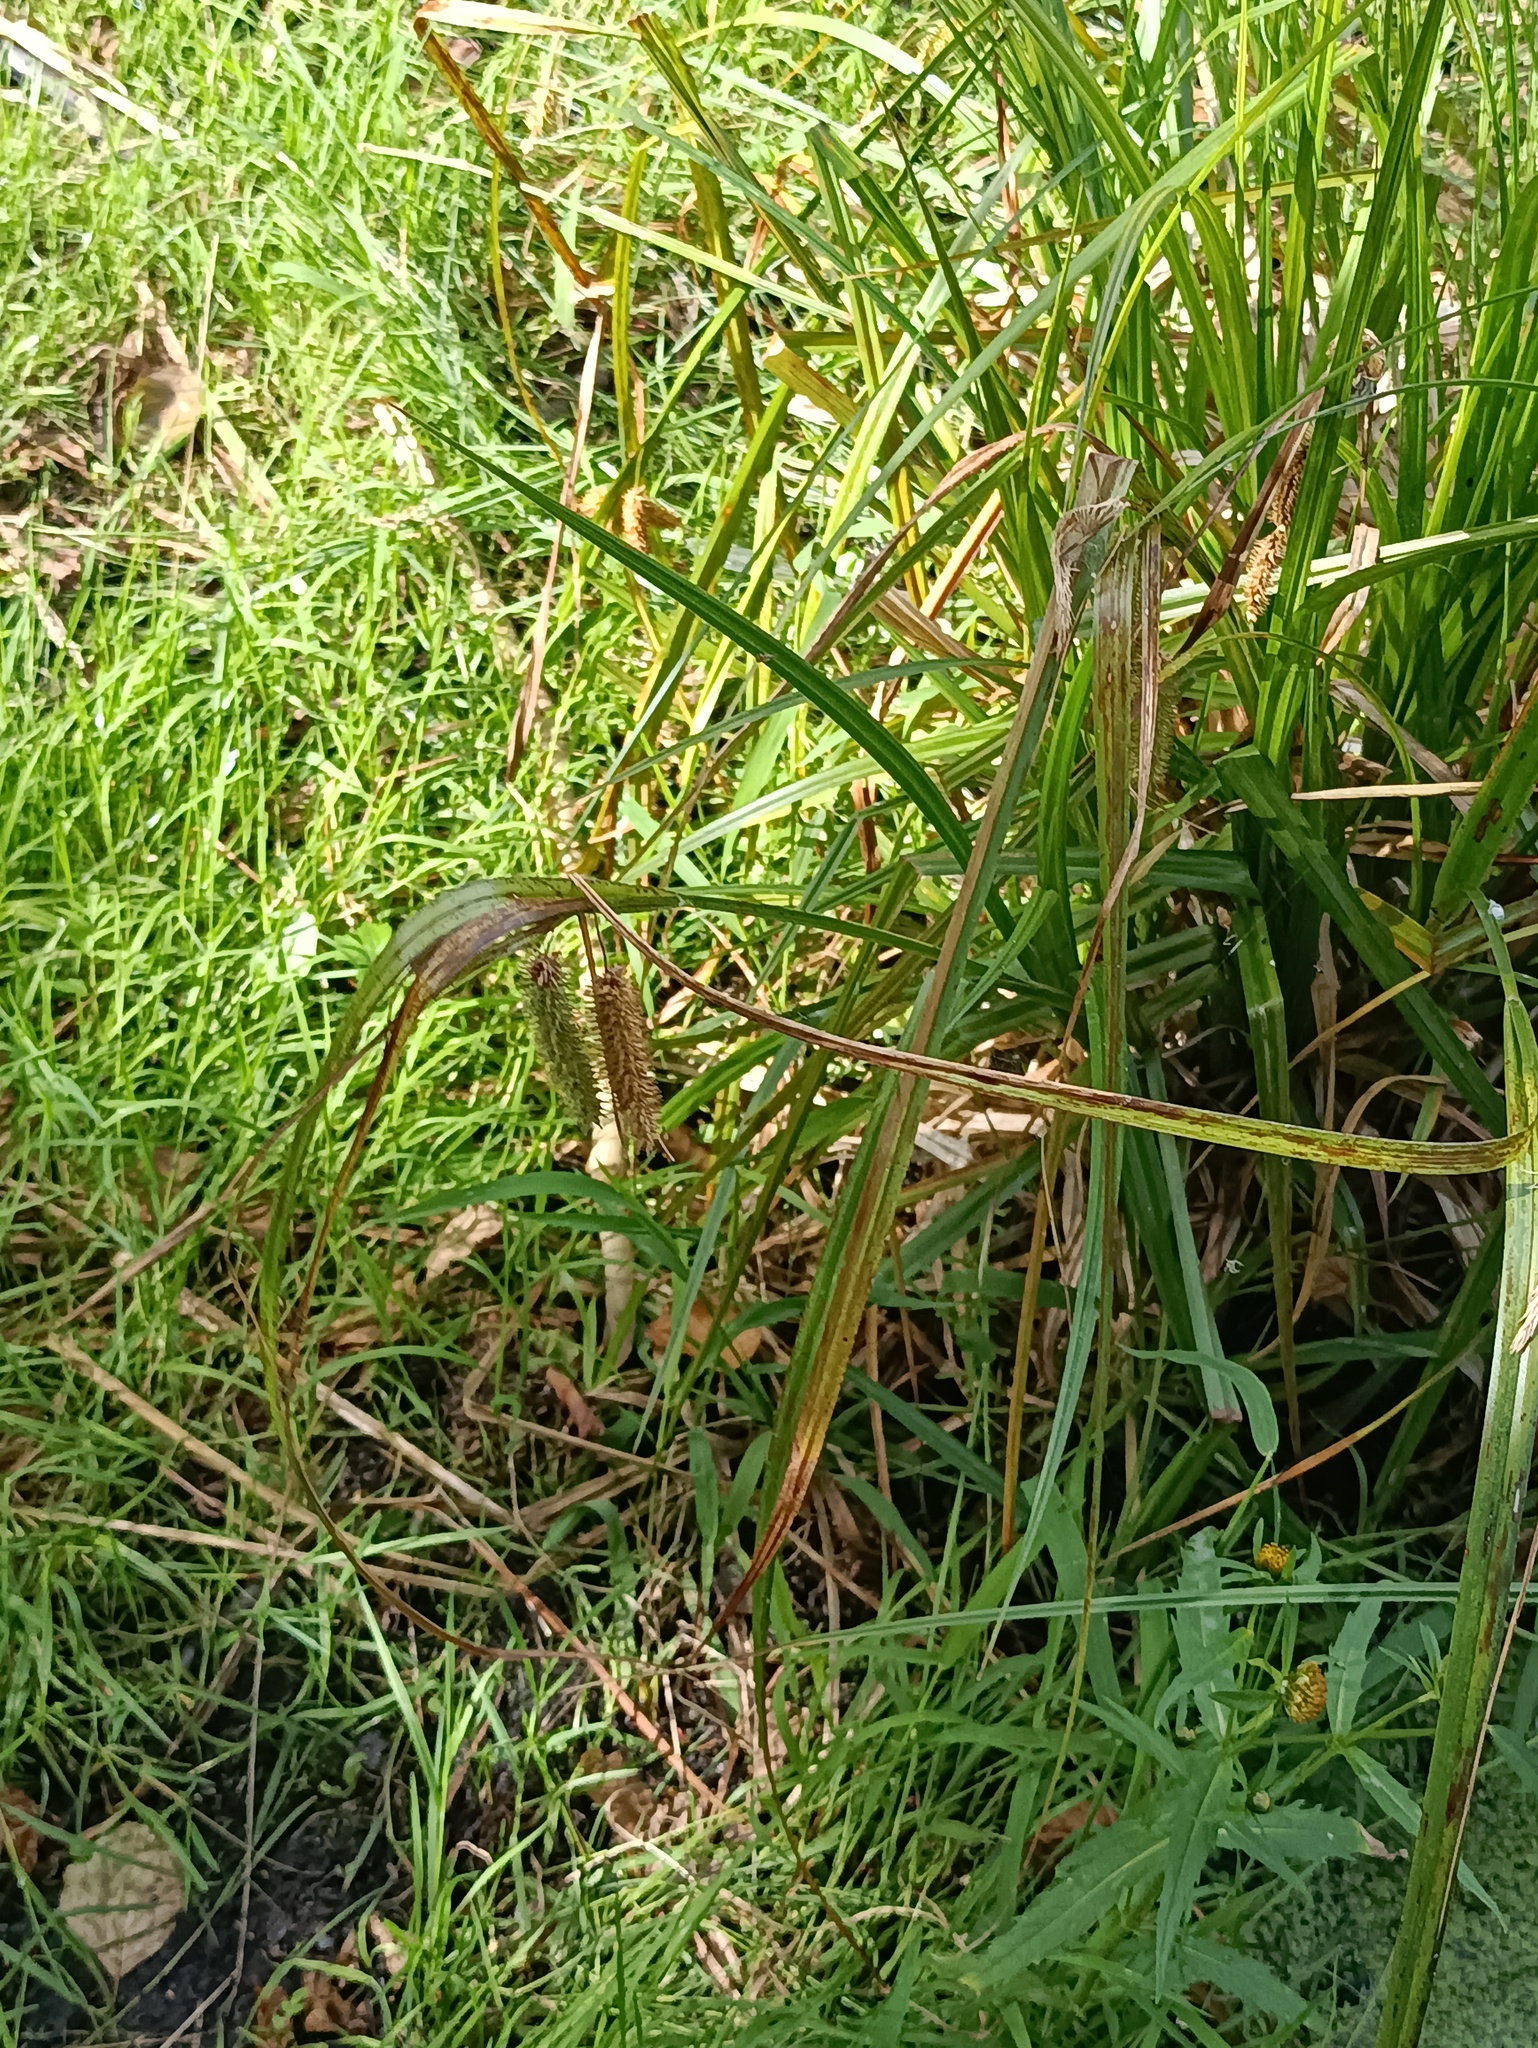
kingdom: Plantae
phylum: Tracheophyta
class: Liliopsida
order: Poales
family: Cyperaceae
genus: Carex
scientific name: Carex pseudocyperus
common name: Cyperus sedge
